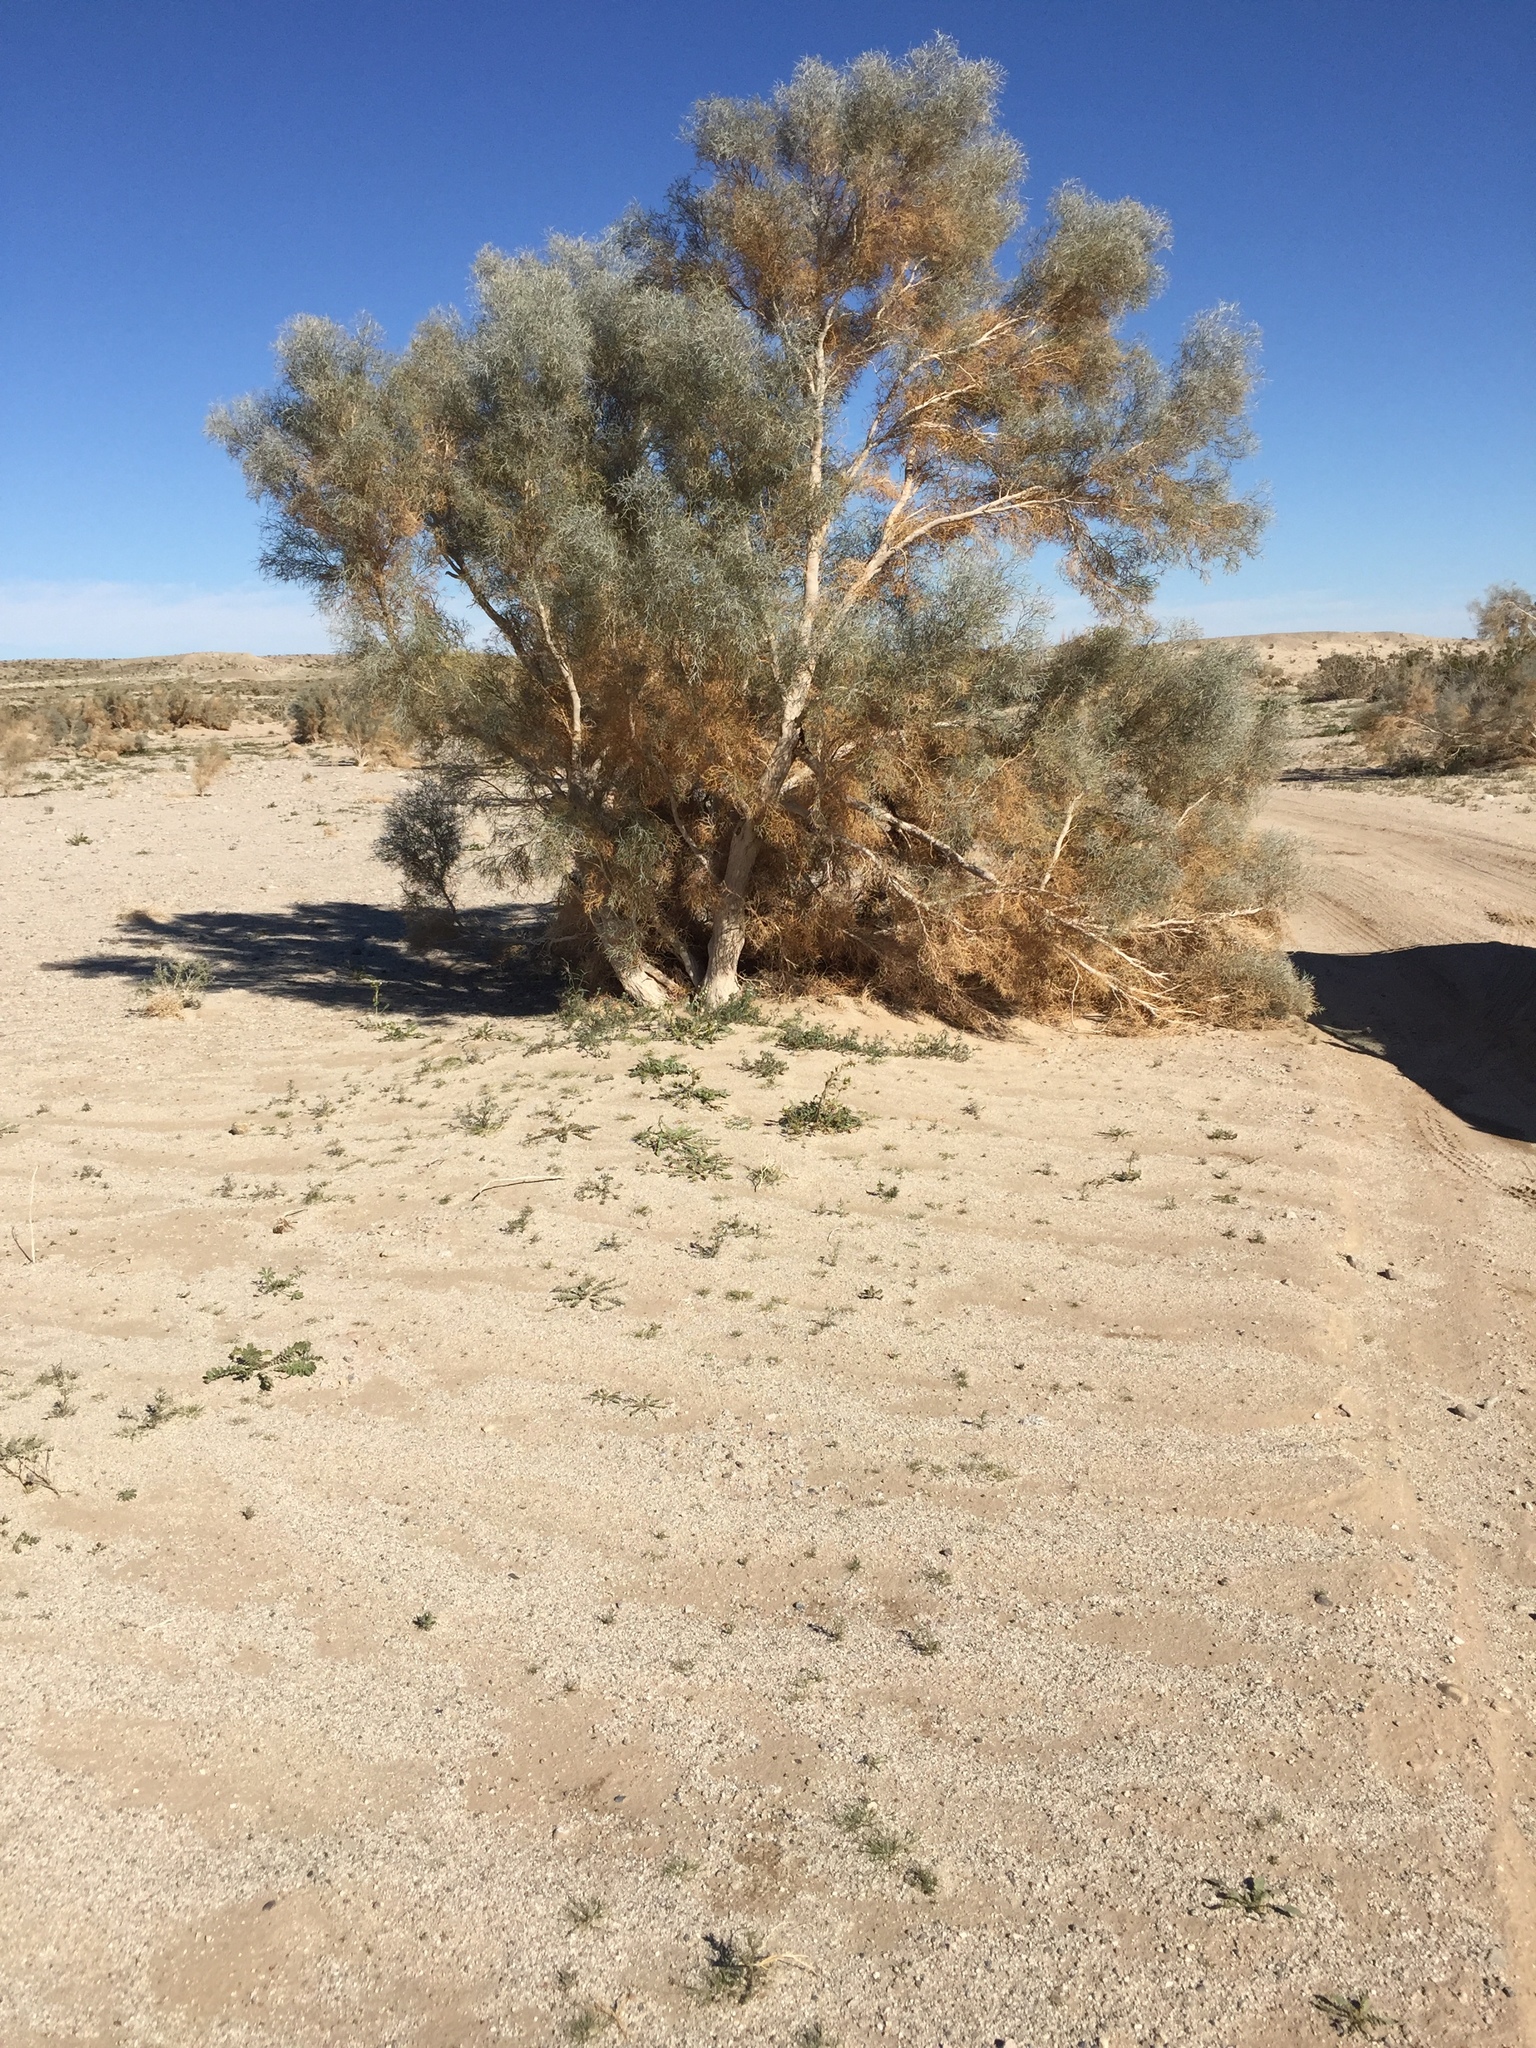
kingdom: Plantae
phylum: Tracheophyta
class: Magnoliopsida
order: Fabales
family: Fabaceae
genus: Psorothamnus
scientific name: Psorothamnus spinosus
